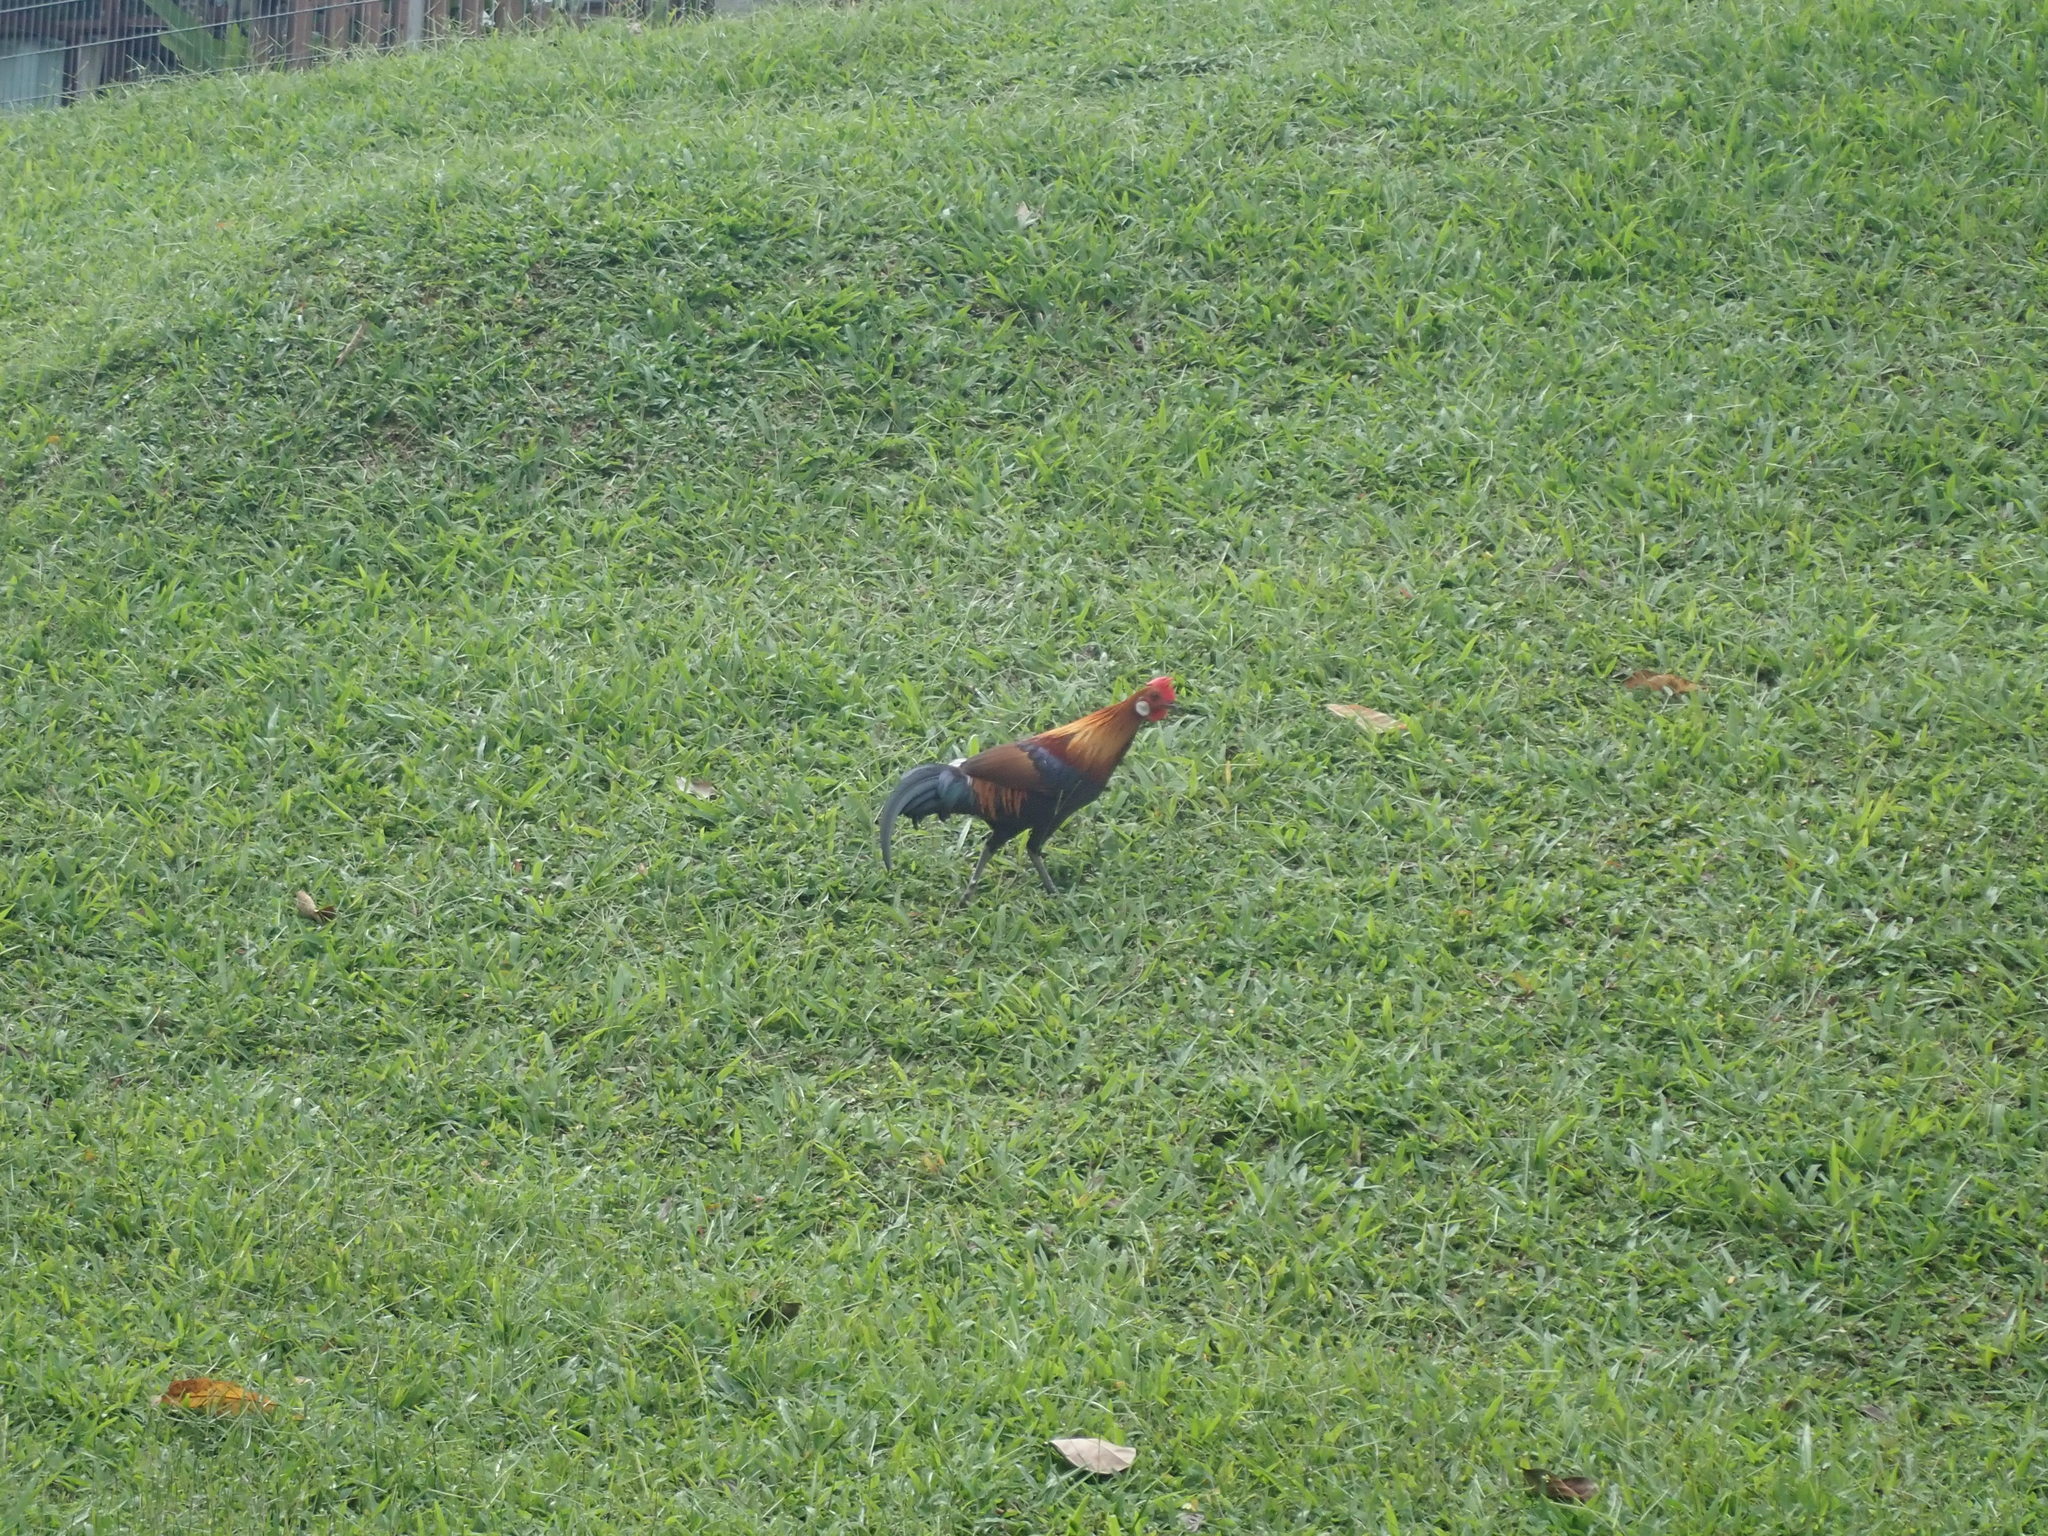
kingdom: Animalia
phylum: Chordata
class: Aves
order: Galliformes
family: Phasianidae
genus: Gallus
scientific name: Gallus gallus
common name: Red junglefowl
